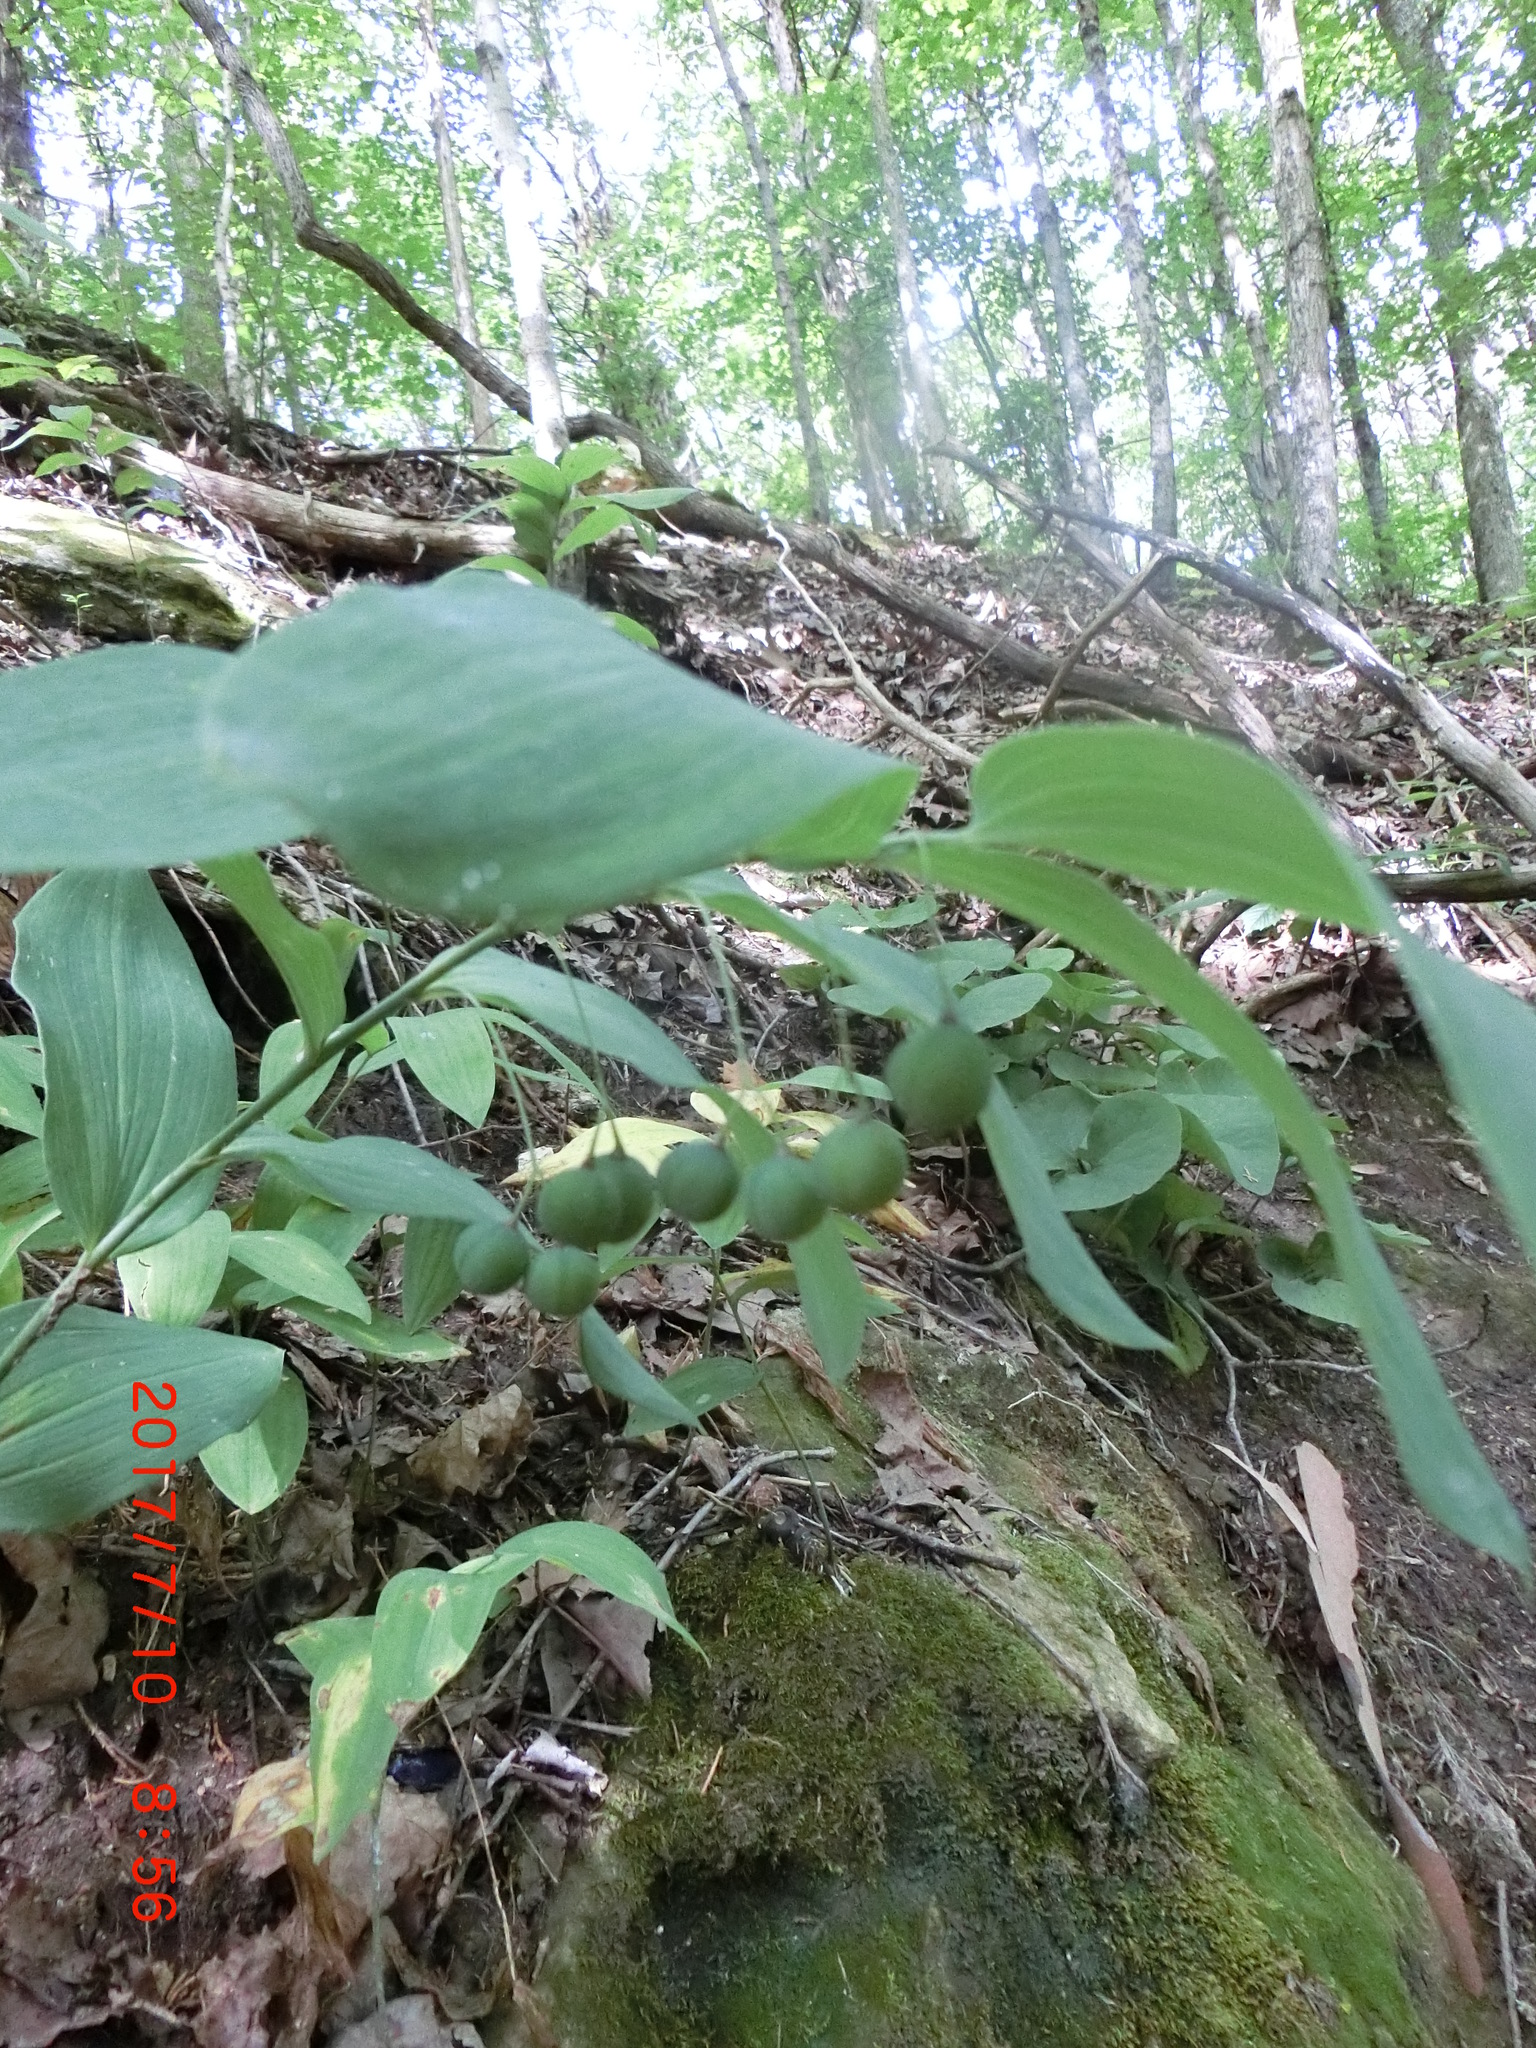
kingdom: Plantae
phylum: Tracheophyta
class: Liliopsida
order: Asparagales
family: Asparagaceae
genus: Polygonatum
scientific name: Polygonatum biflorum
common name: American solomon's-seal
